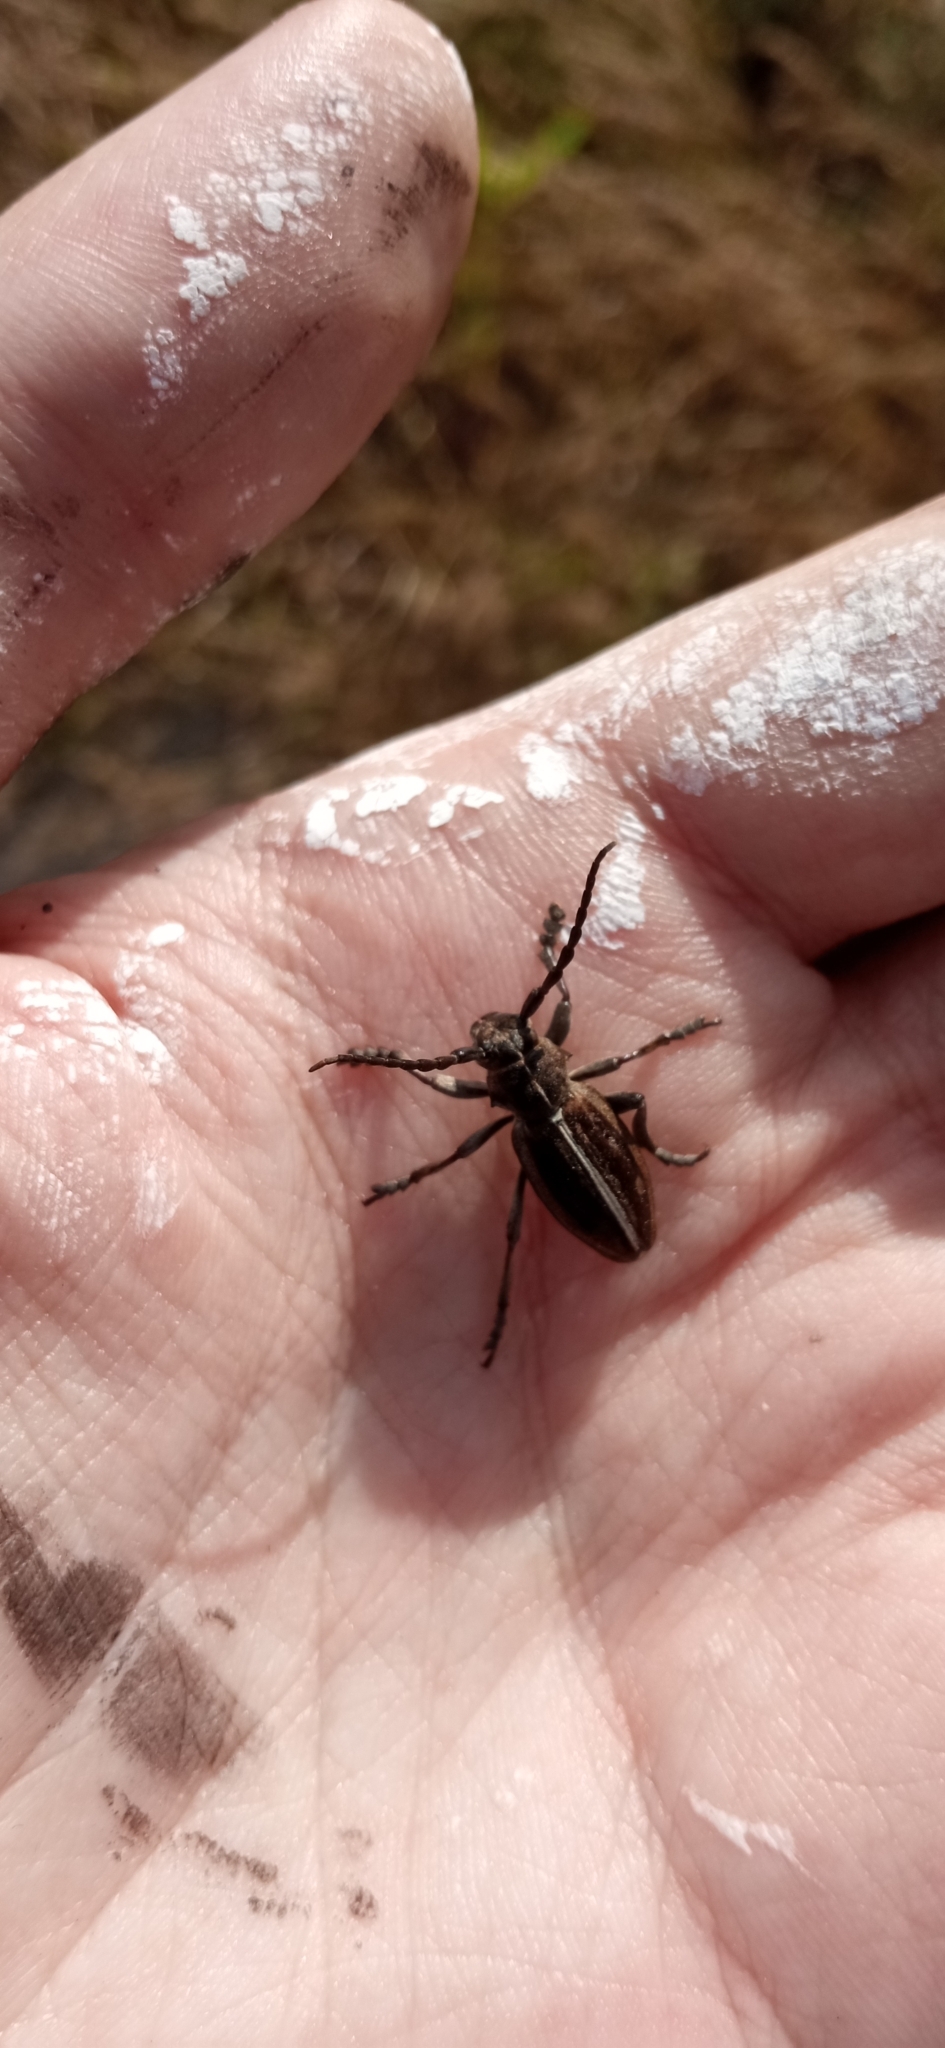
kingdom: Animalia
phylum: Arthropoda
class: Insecta
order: Coleoptera
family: Cerambycidae
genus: Dorcadion
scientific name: Dorcadion holosericeum
